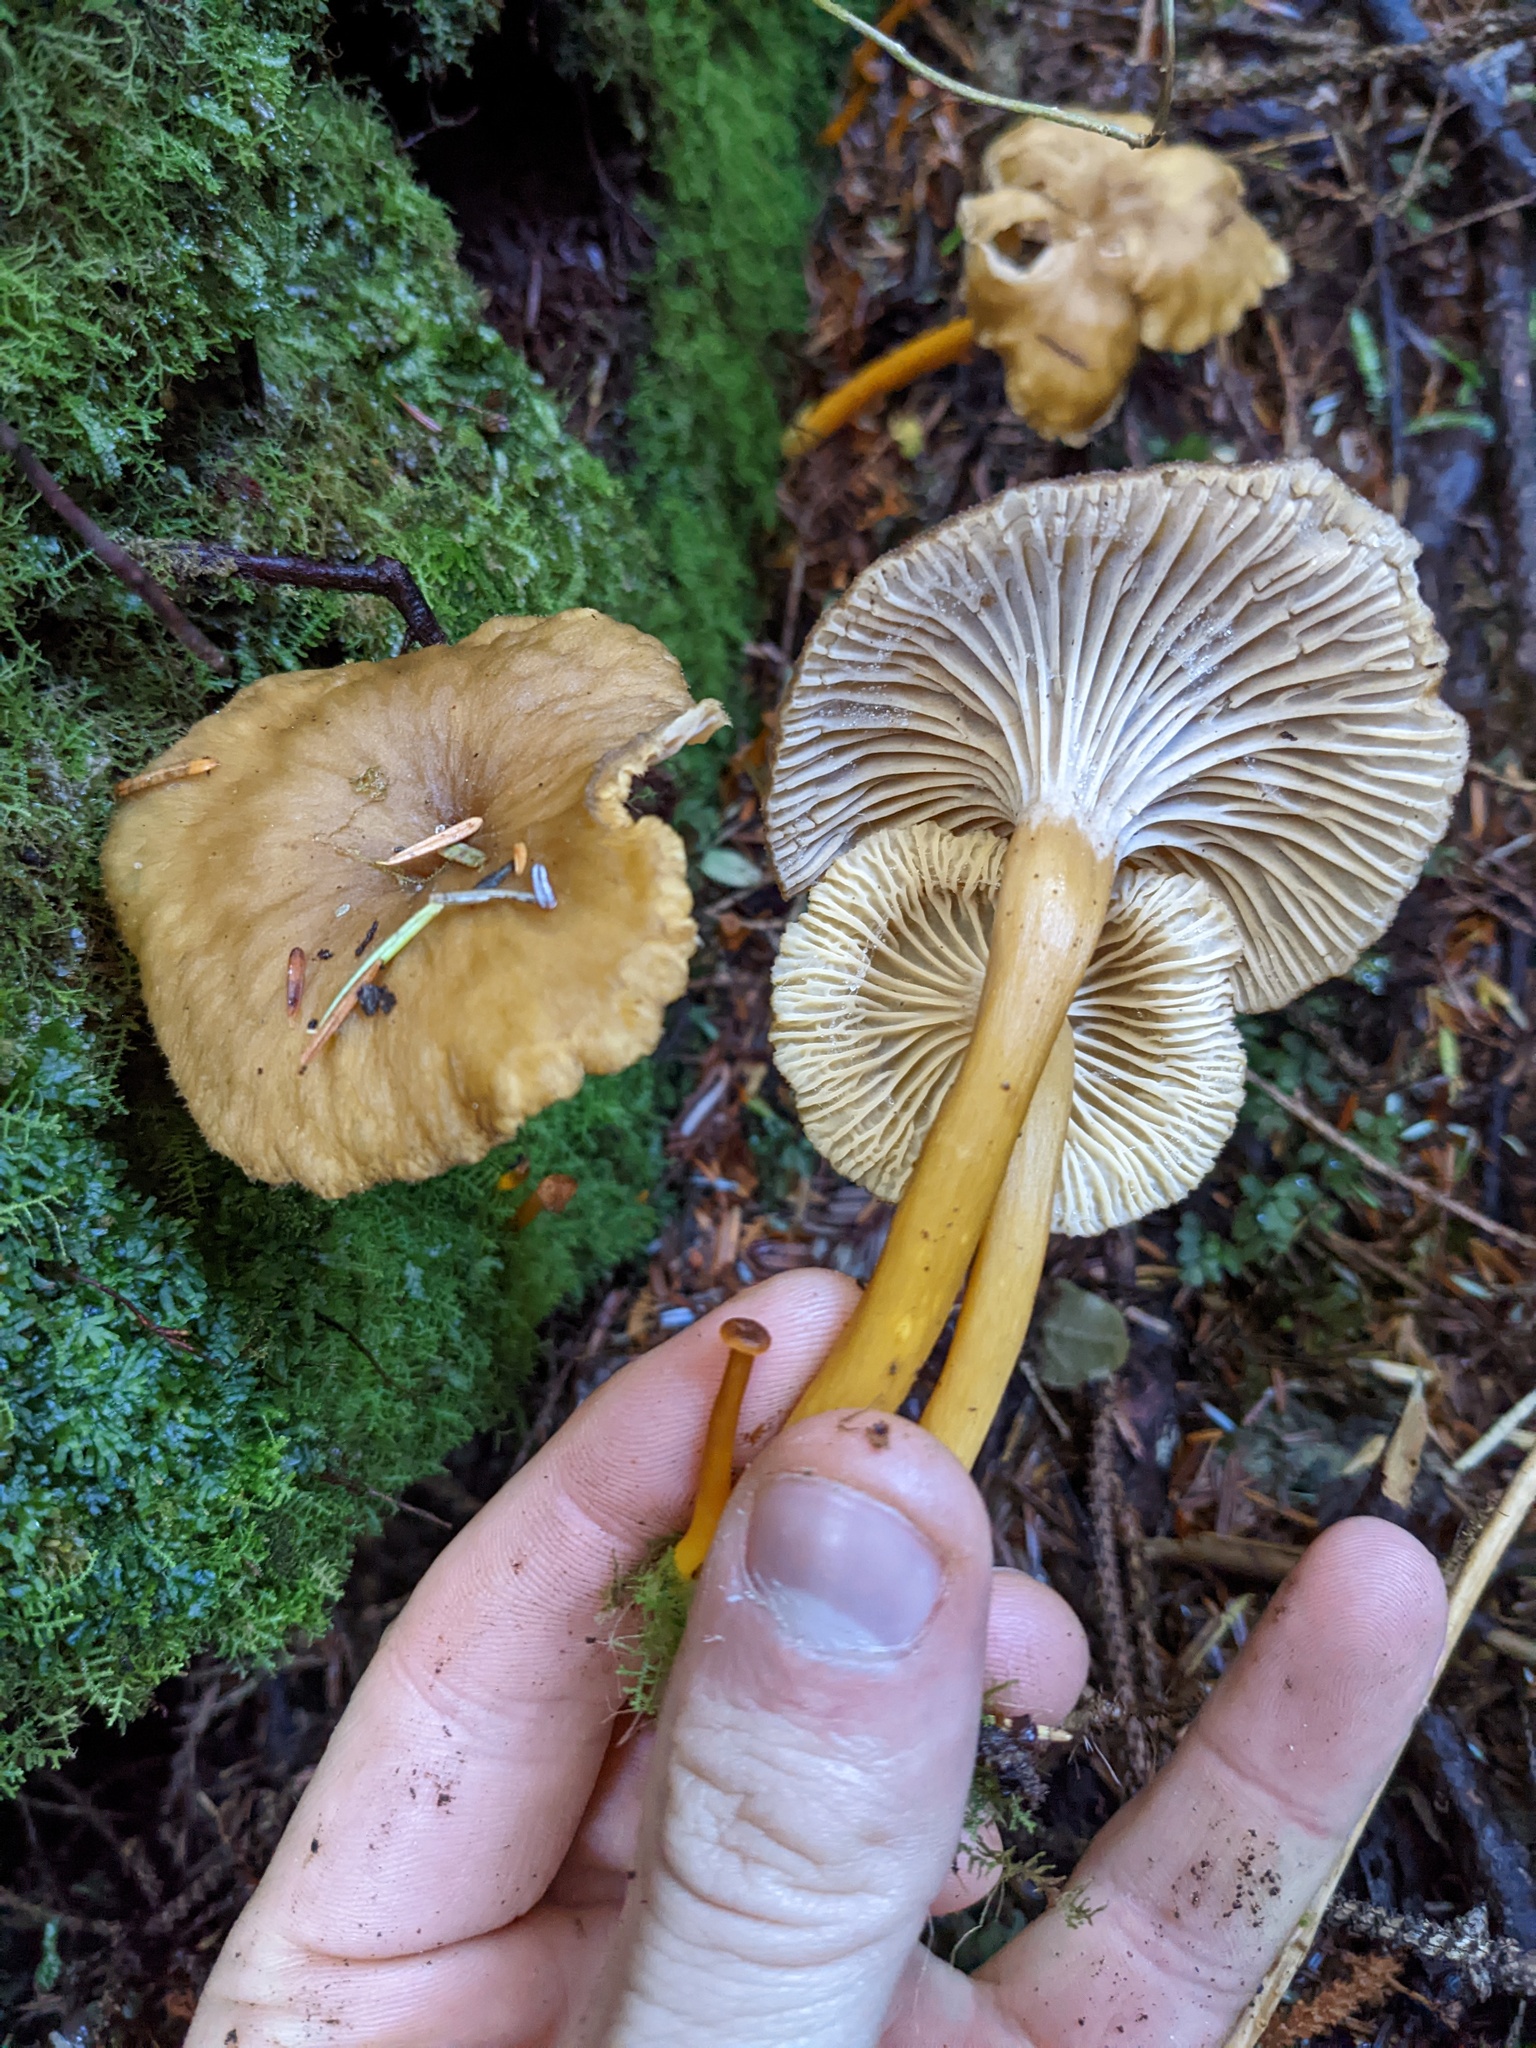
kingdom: Fungi
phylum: Basidiomycota
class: Agaricomycetes
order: Cantharellales
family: Hydnaceae
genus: Craterellus
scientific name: Craterellus tubaeformis
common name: Yellowfoot
